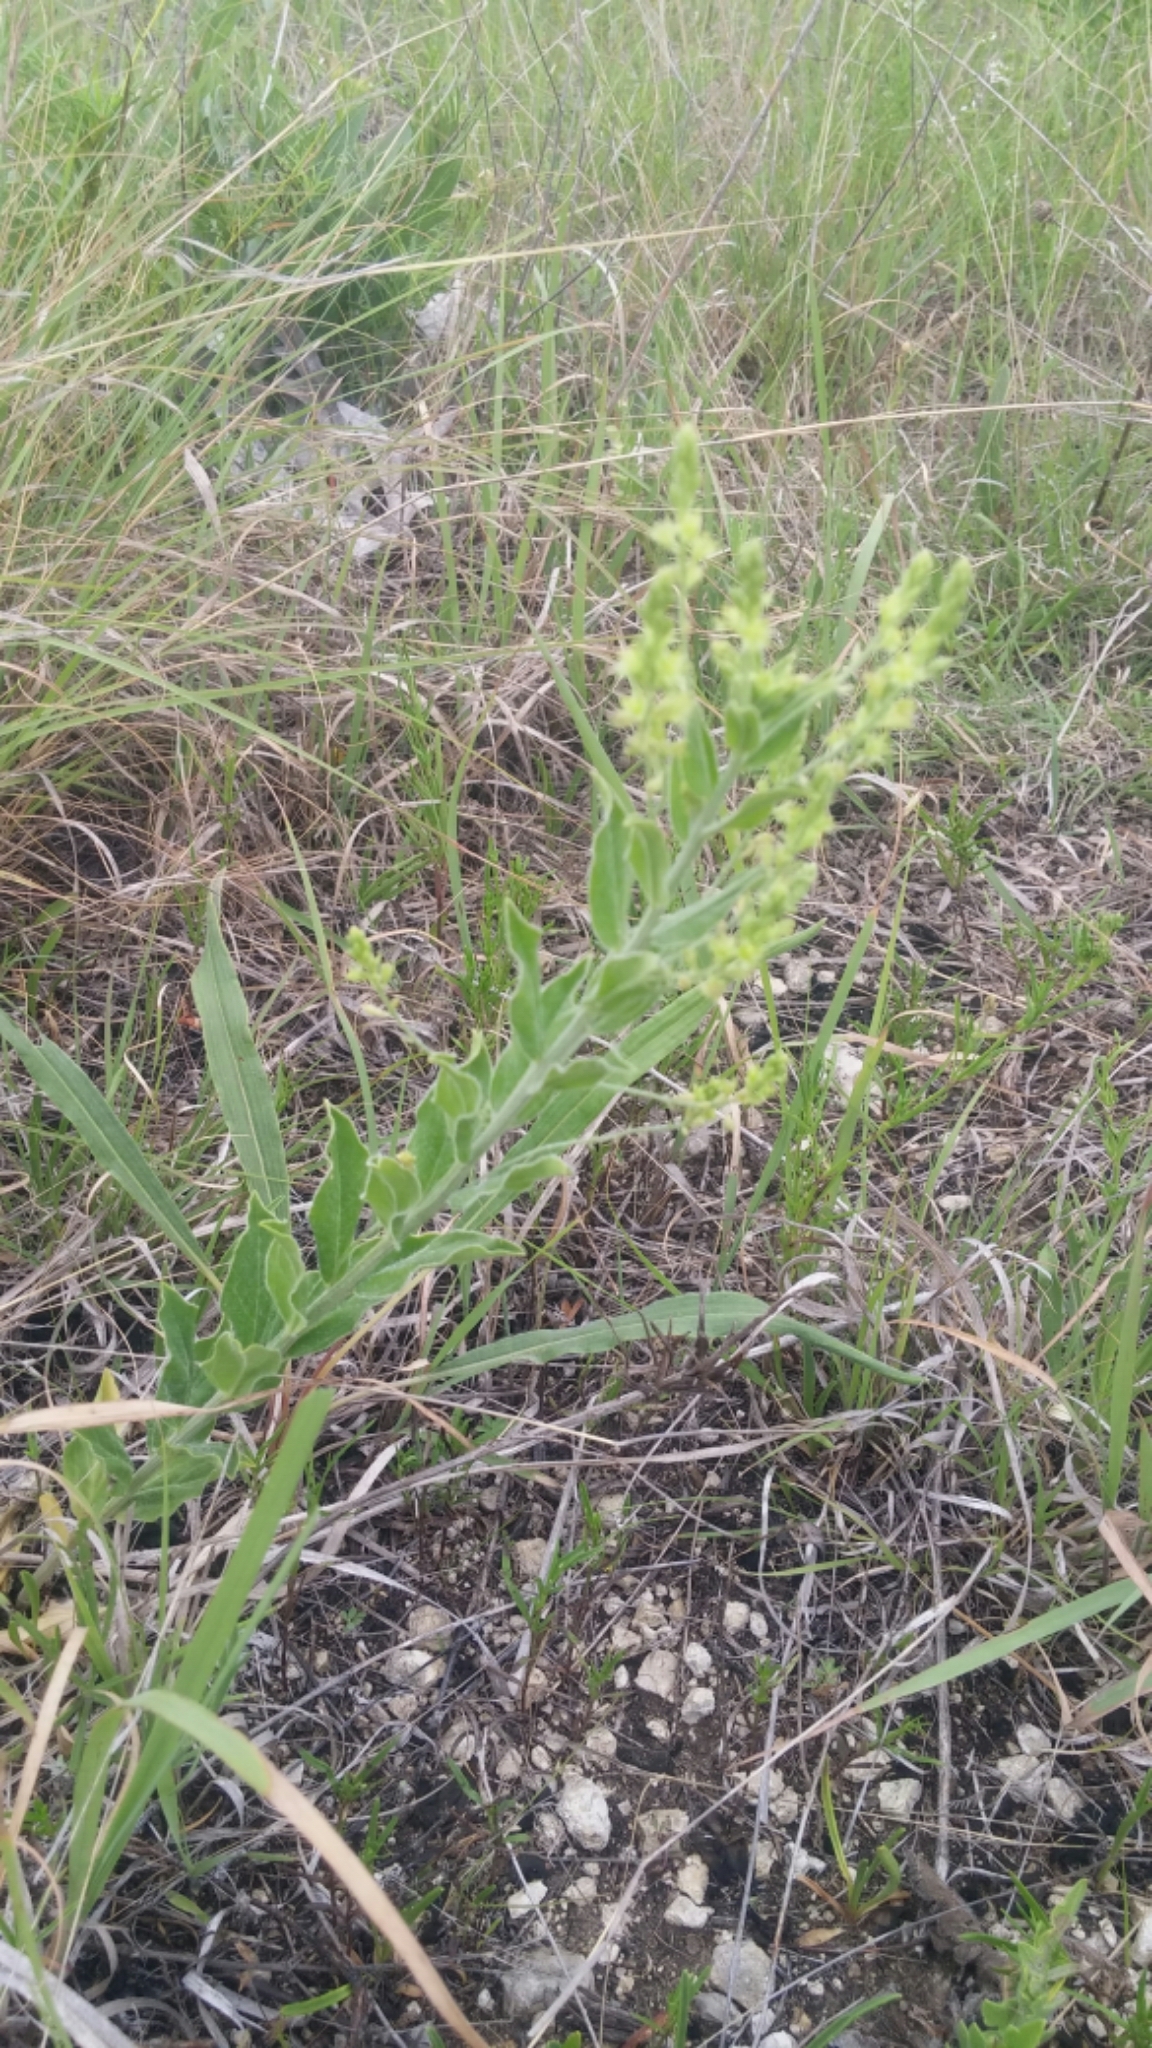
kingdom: Plantae
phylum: Tracheophyta
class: Magnoliopsida
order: Malpighiales
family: Euphorbiaceae
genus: Ditaxis
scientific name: Ditaxis mercurialina
